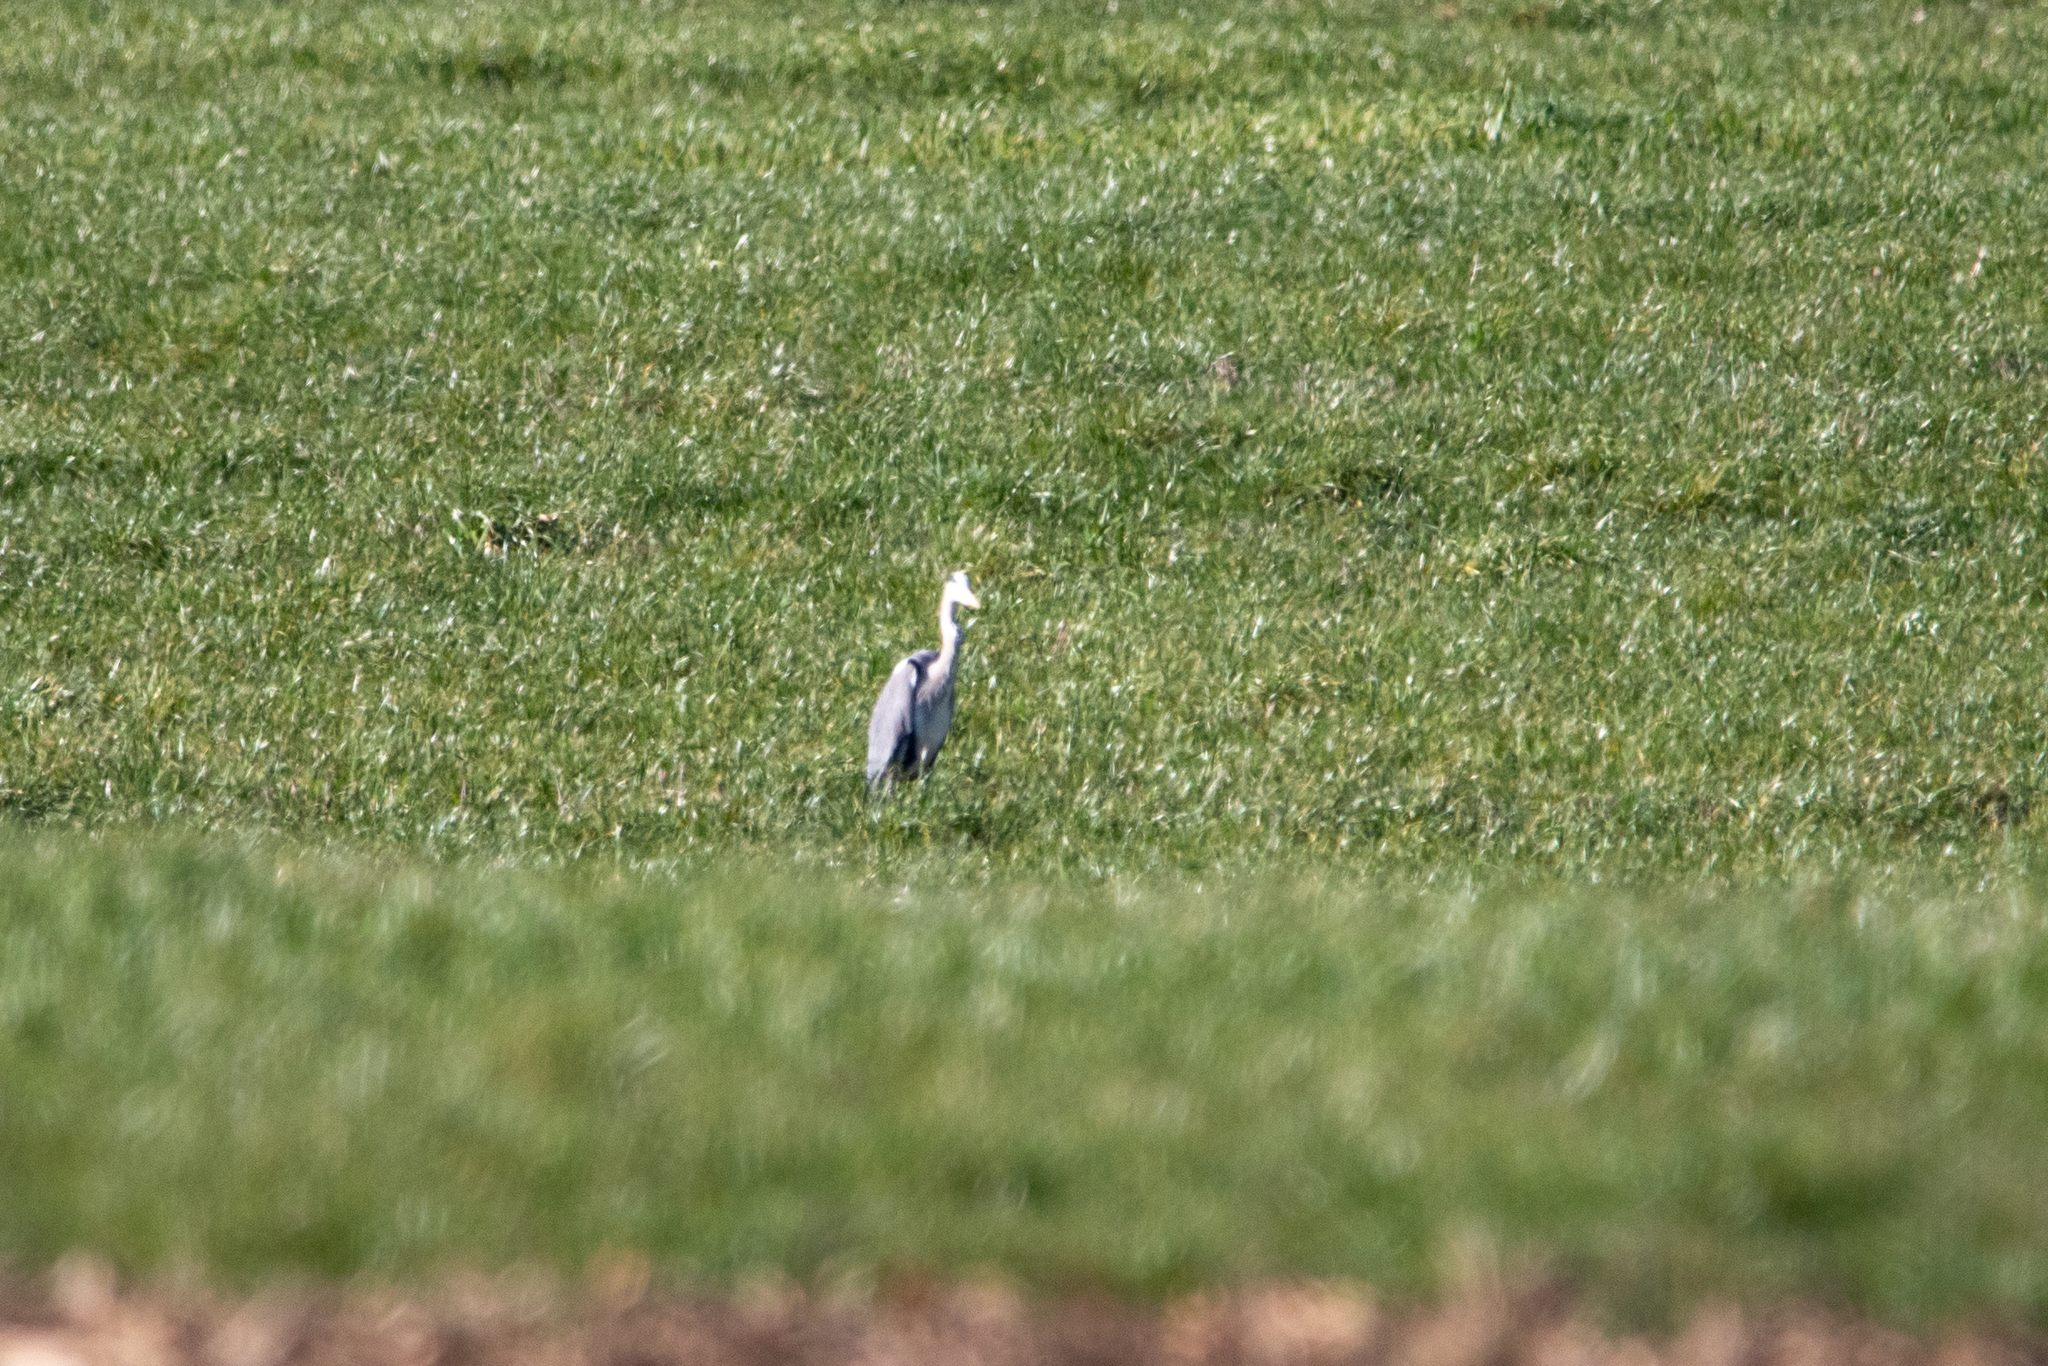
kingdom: Animalia
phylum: Chordata
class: Aves
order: Pelecaniformes
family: Ardeidae
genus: Ardea
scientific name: Ardea cinerea
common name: Grey heron
